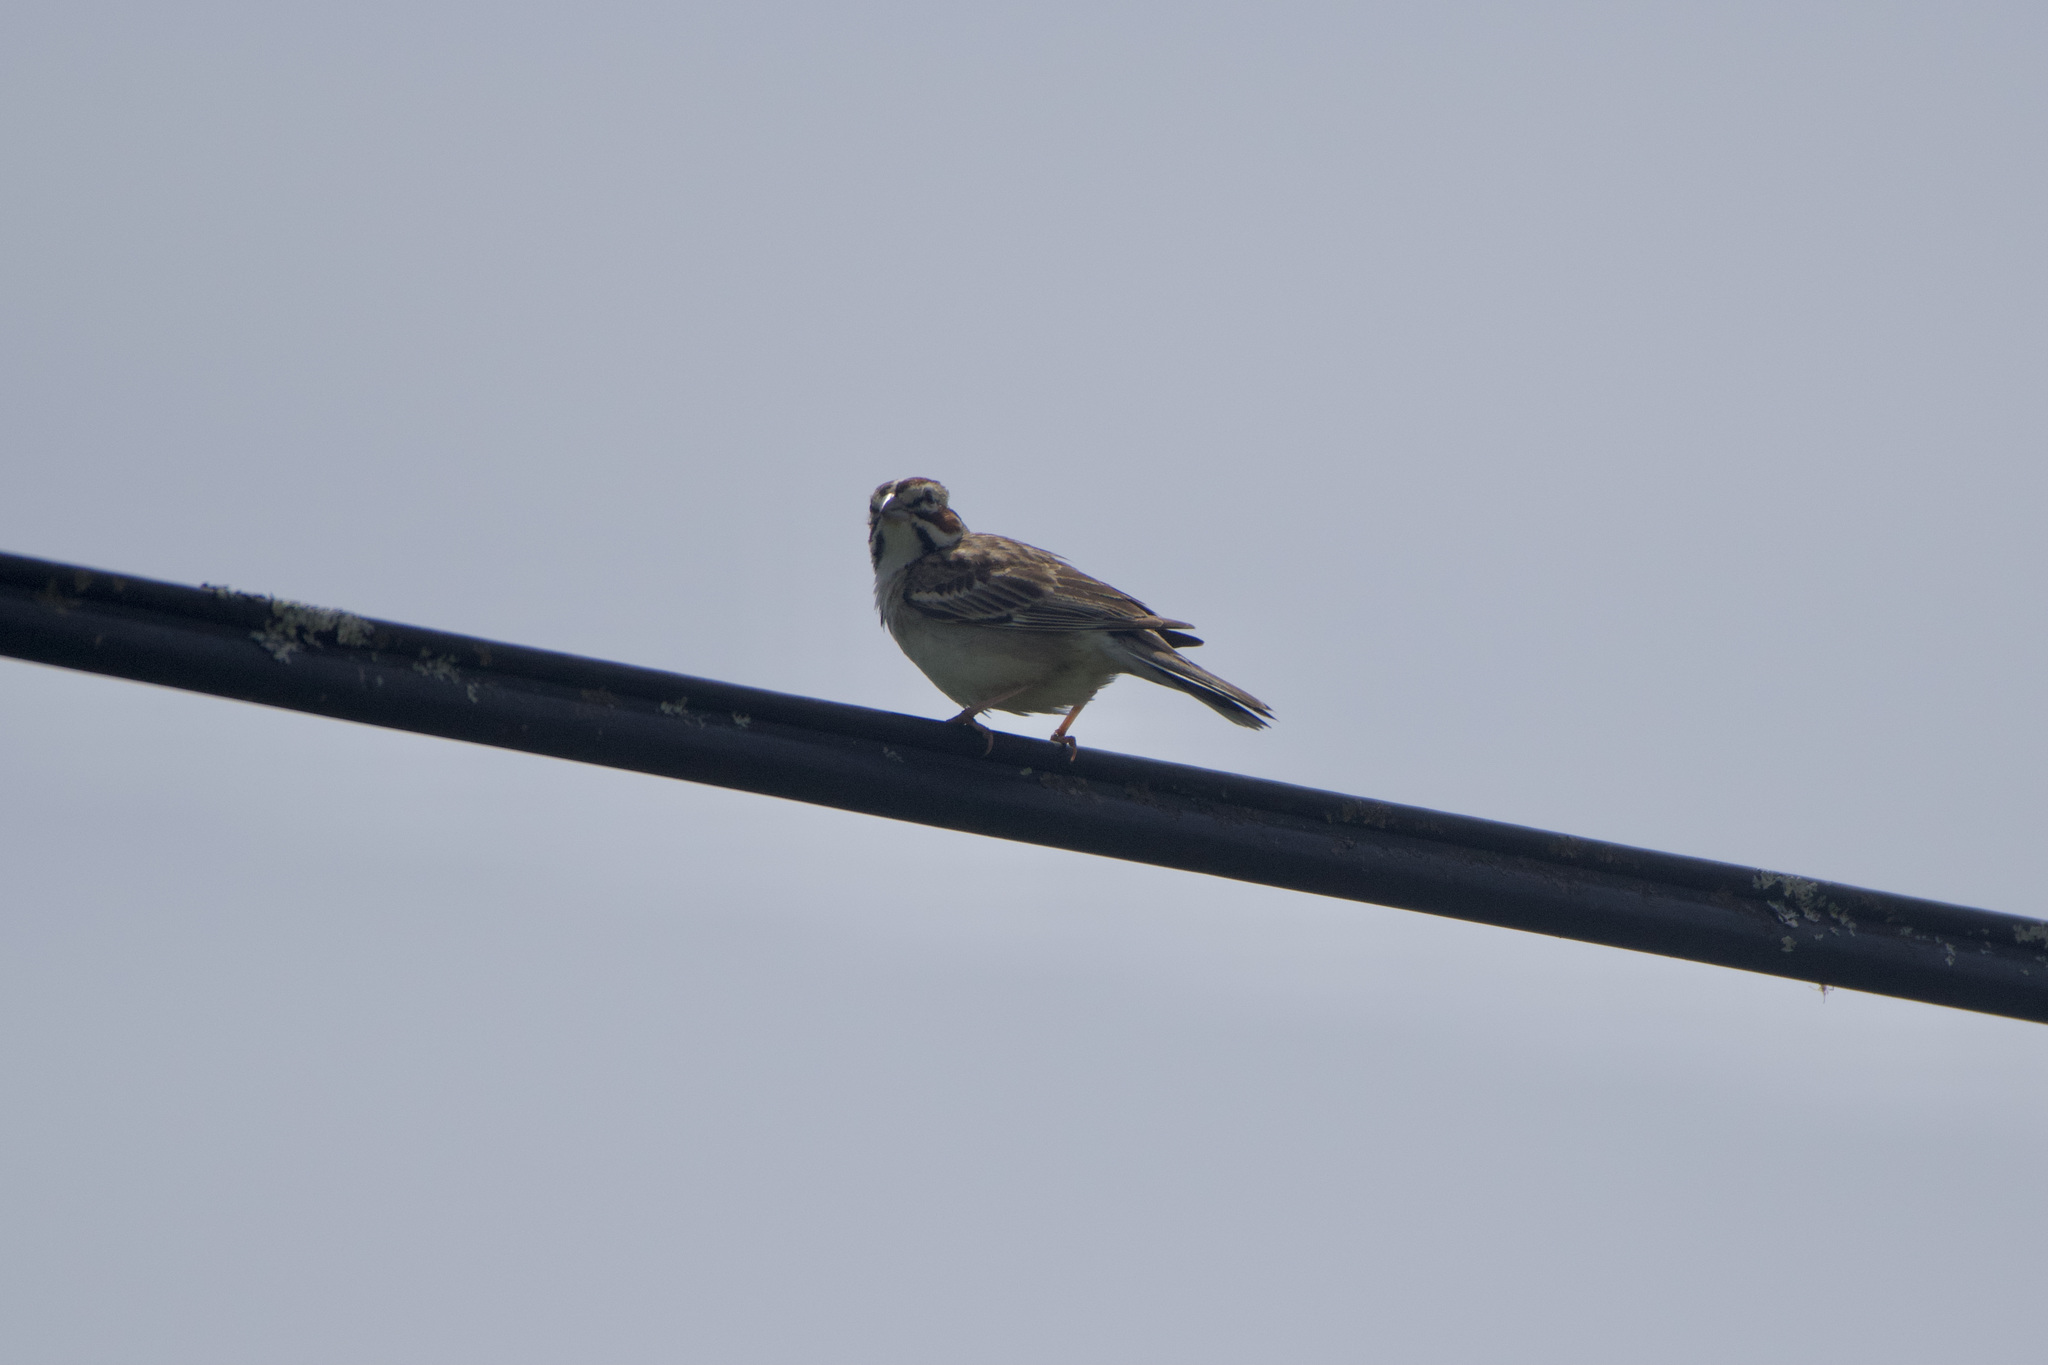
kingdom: Animalia
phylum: Chordata
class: Aves
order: Passeriformes
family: Passerellidae
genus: Chondestes
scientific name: Chondestes grammacus
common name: Lark sparrow
